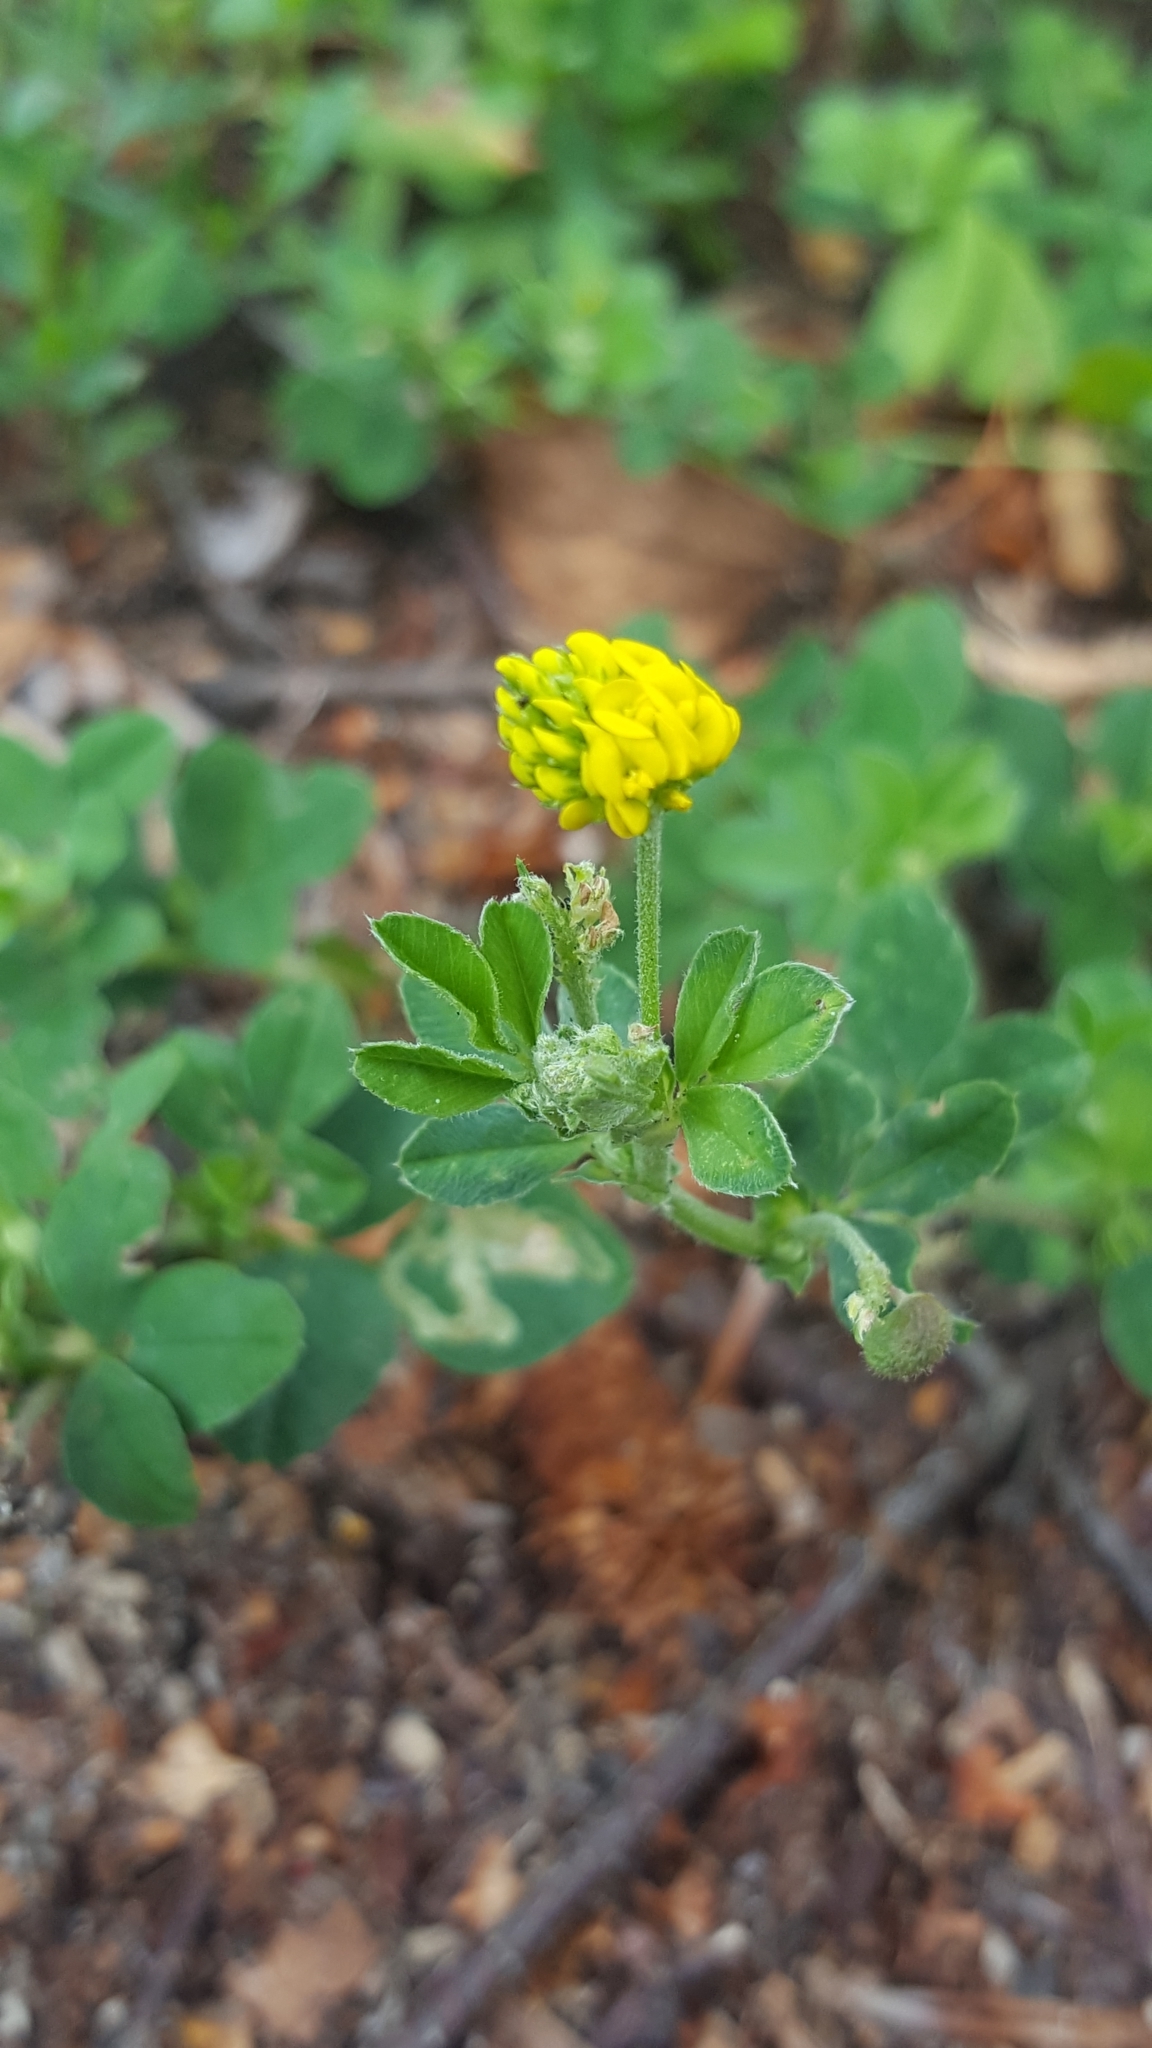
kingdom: Plantae
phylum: Tracheophyta
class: Magnoliopsida
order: Fabales
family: Fabaceae
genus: Medicago
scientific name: Medicago lupulina
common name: Black medick
